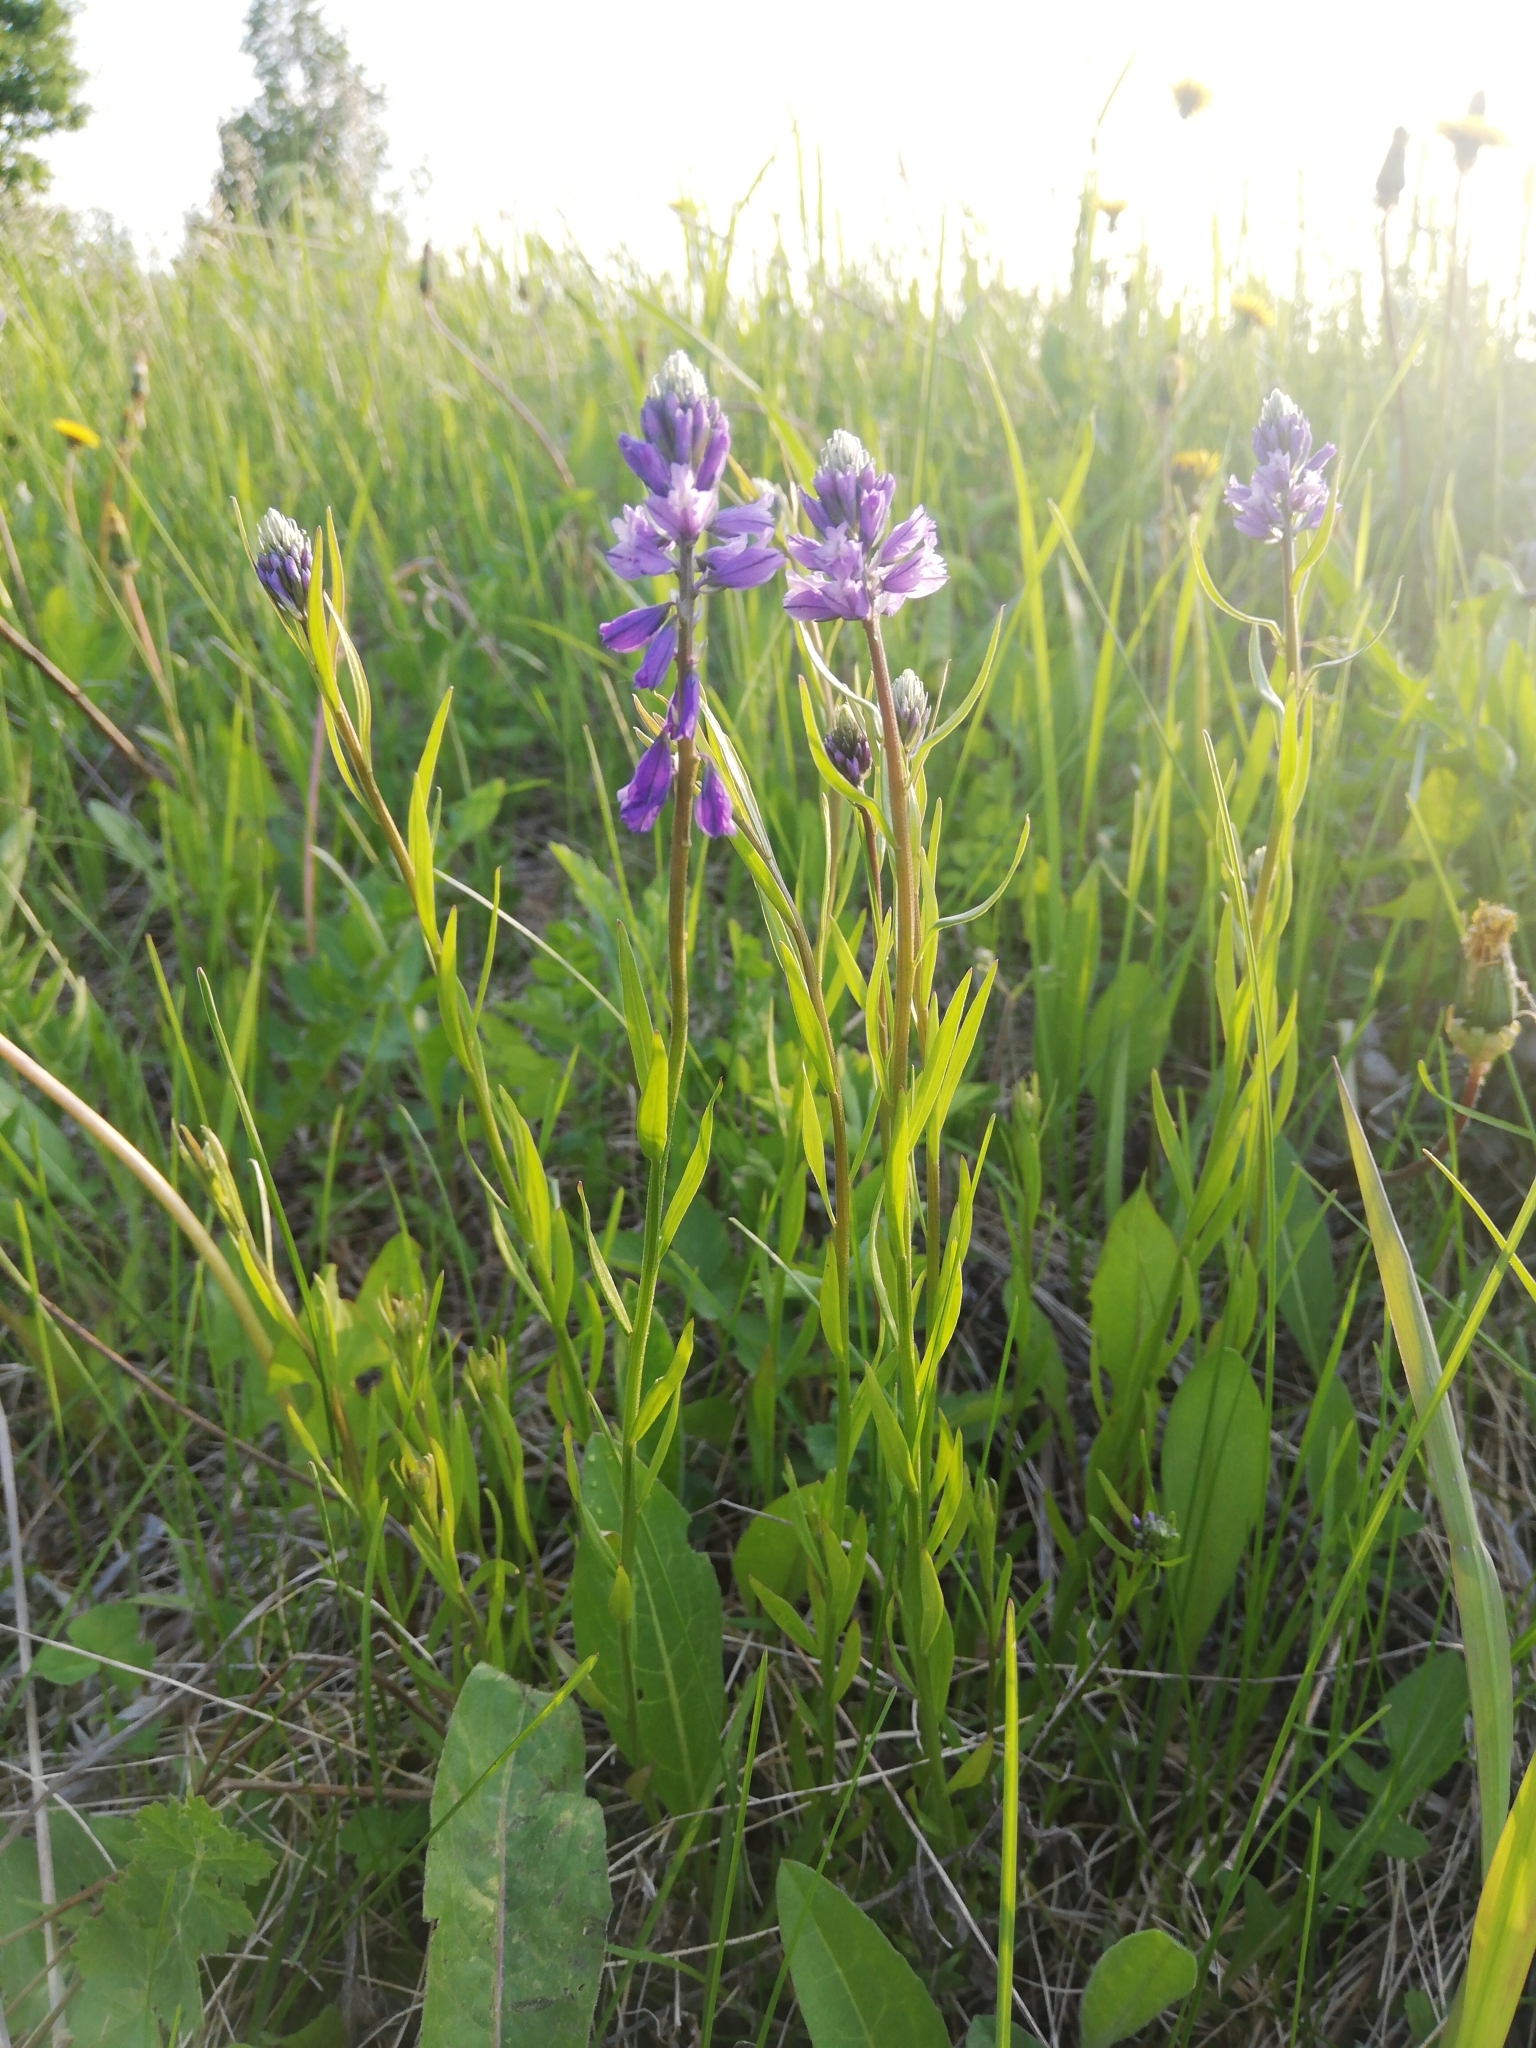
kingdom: Plantae
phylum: Tracheophyta
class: Magnoliopsida
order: Fabales
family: Polygalaceae
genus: Polygala
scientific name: Polygala comosa
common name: Tufted milkwort
